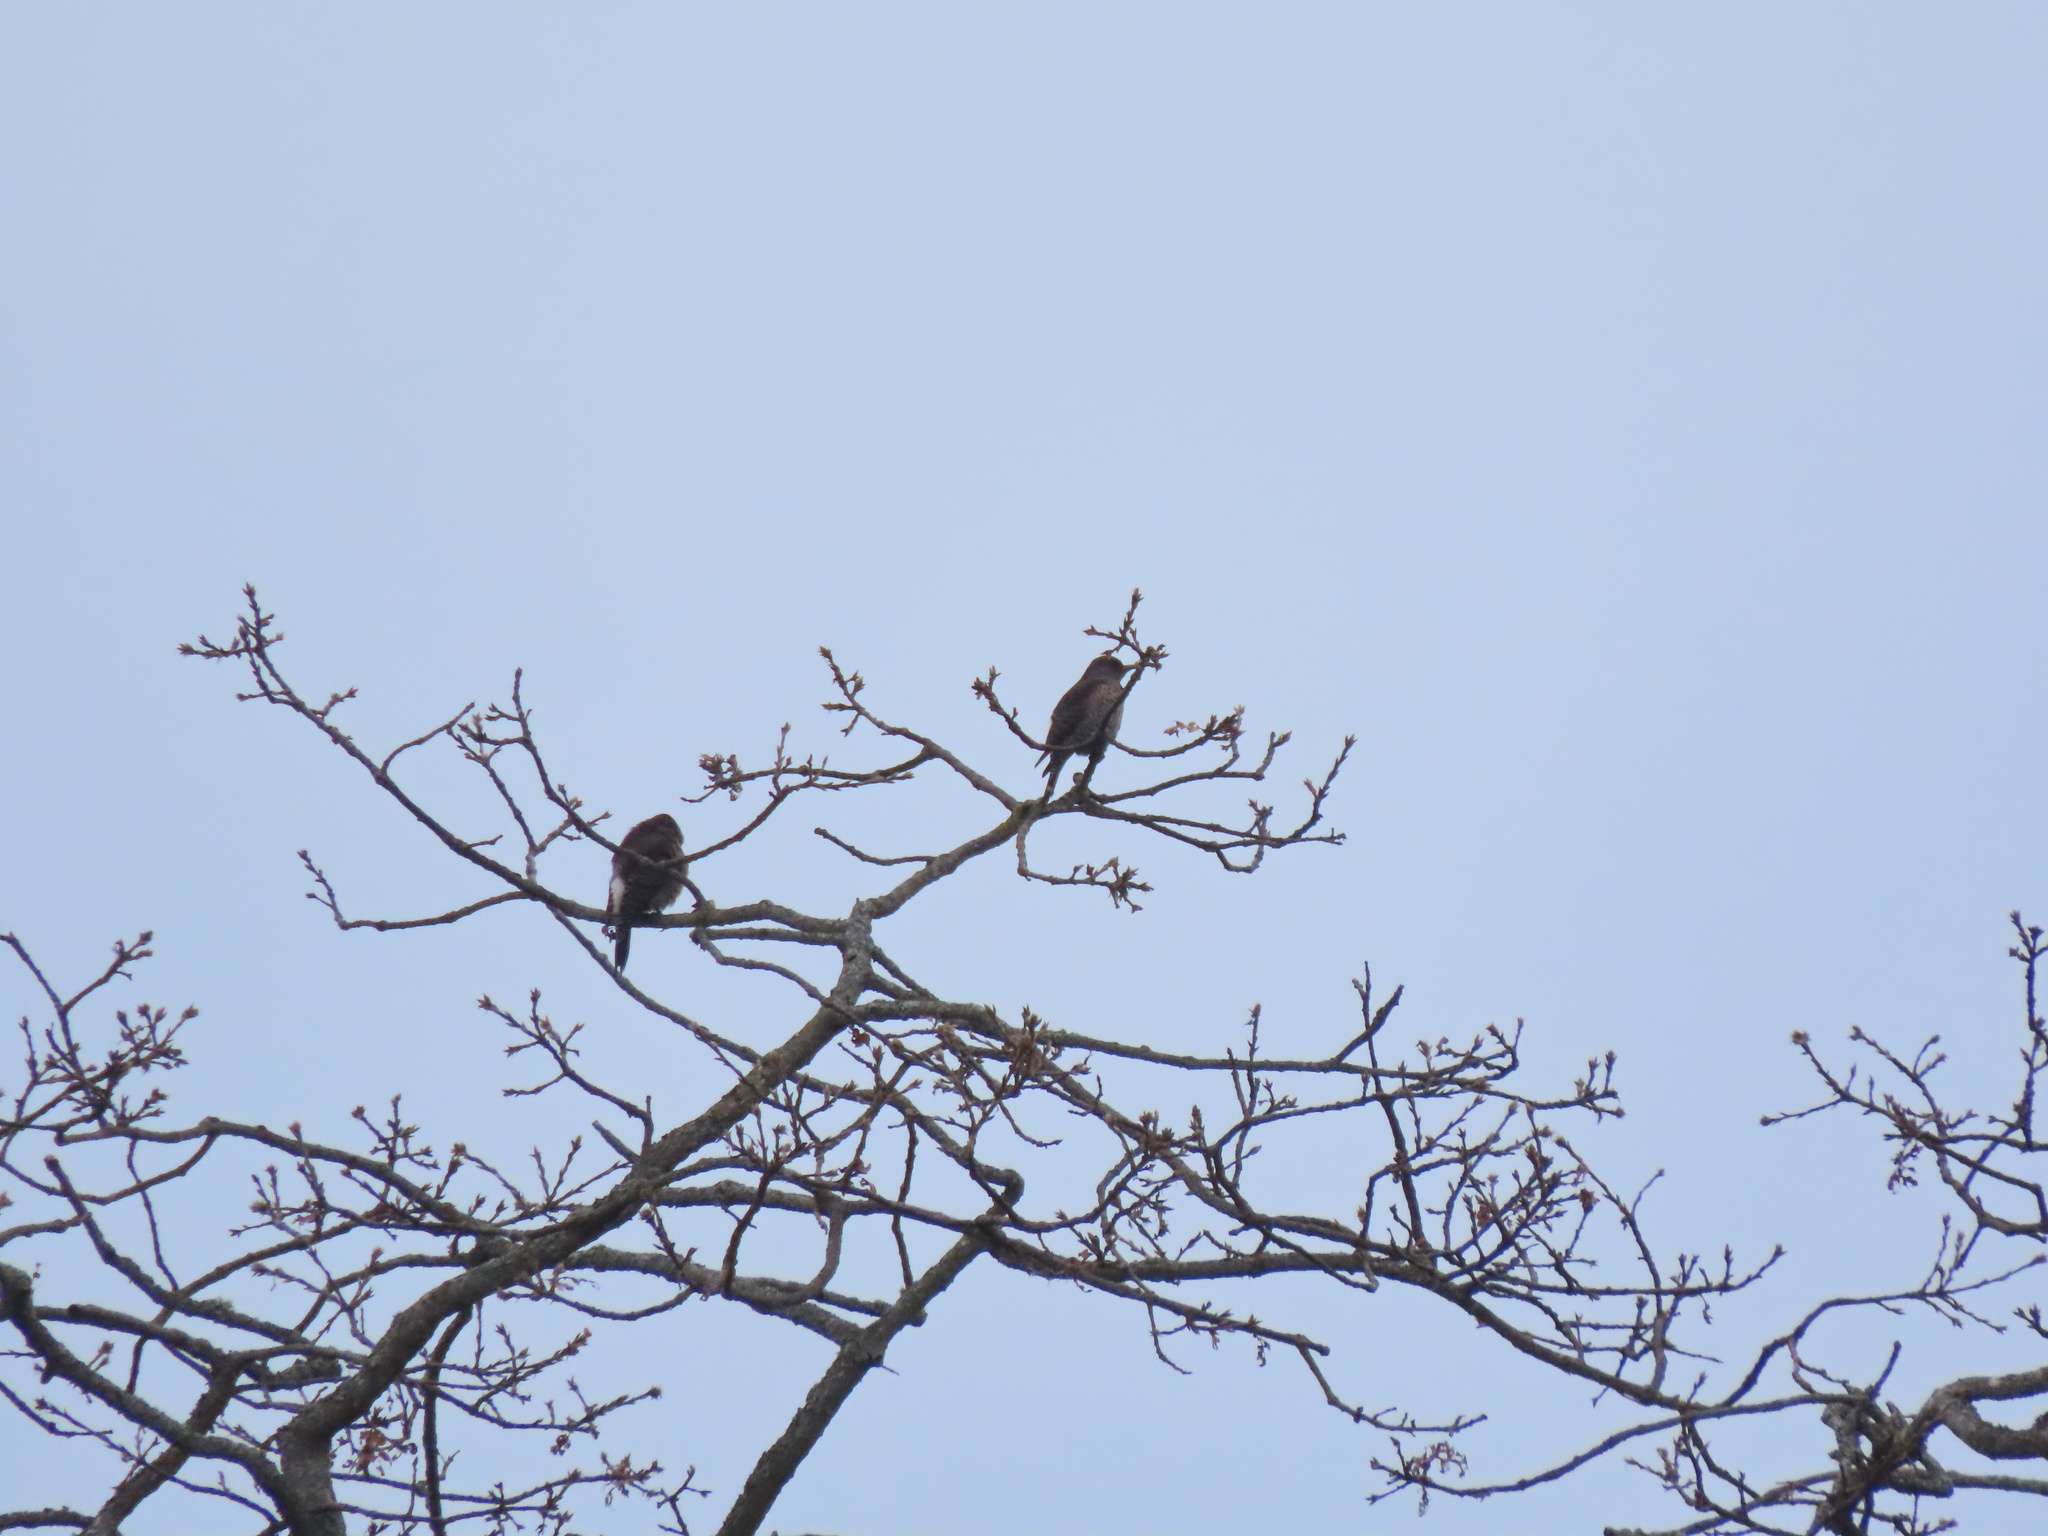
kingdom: Animalia
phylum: Chordata
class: Aves
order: Piciformes
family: Picidae
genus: Colaptes
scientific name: Colaptes auratus
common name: Northern flicker
